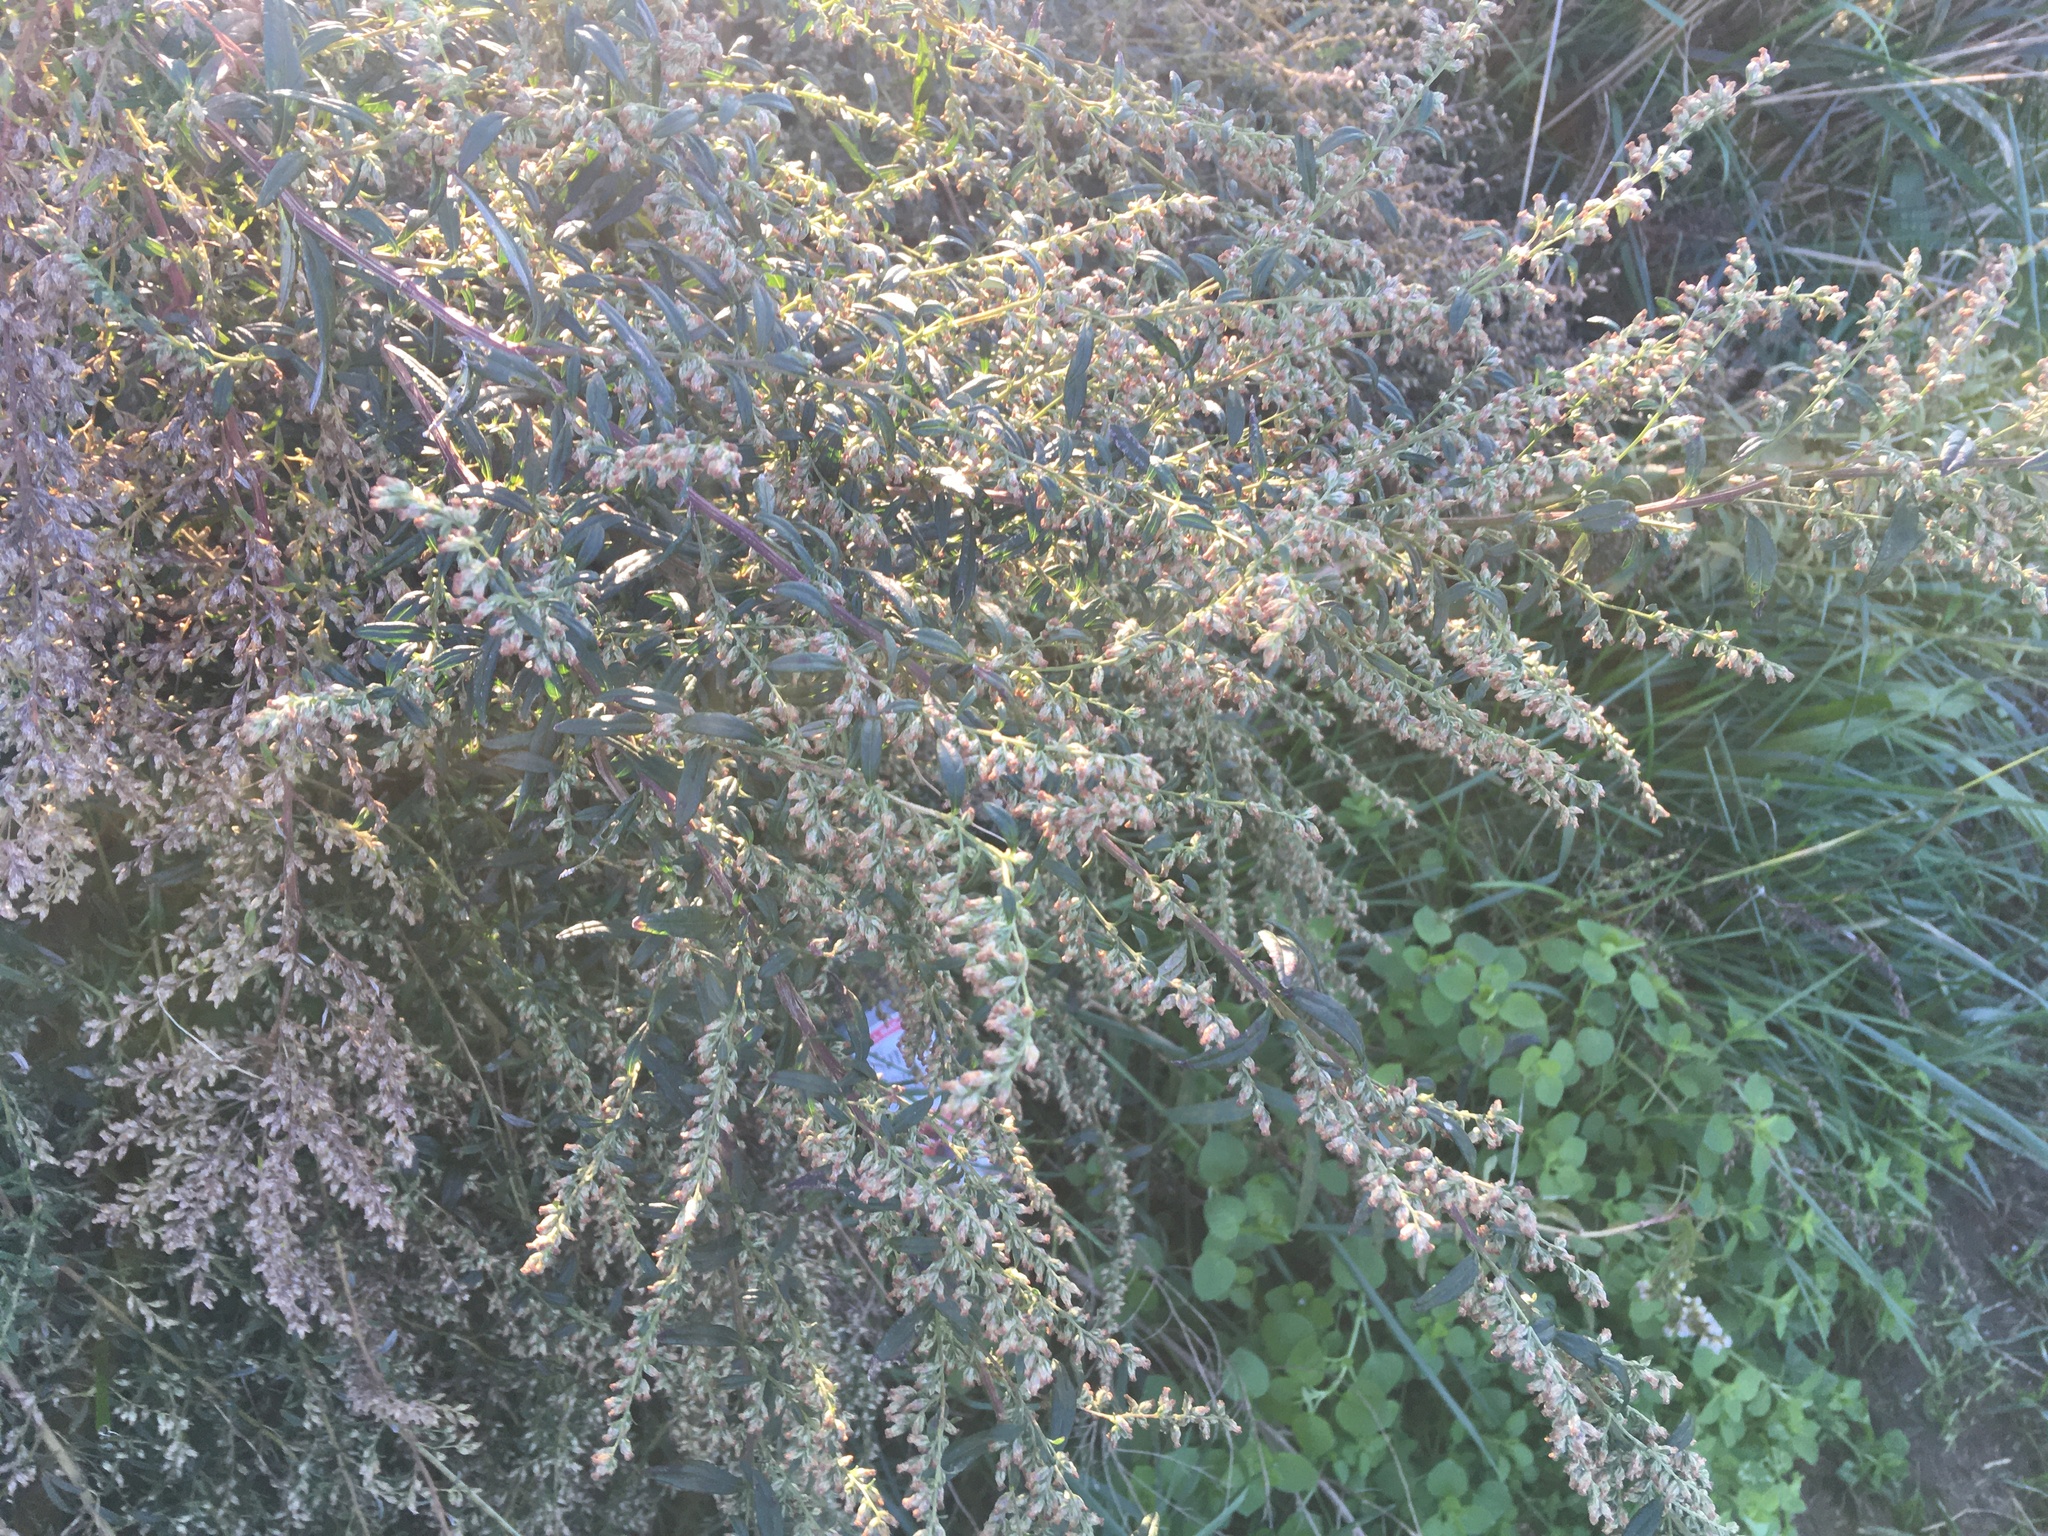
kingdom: Plantae
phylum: Tracheophyta
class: Magnoliopsida
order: Asterales
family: Asteraceae
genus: Artemisia
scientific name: Artemisia vulgaris
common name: Mugwort
